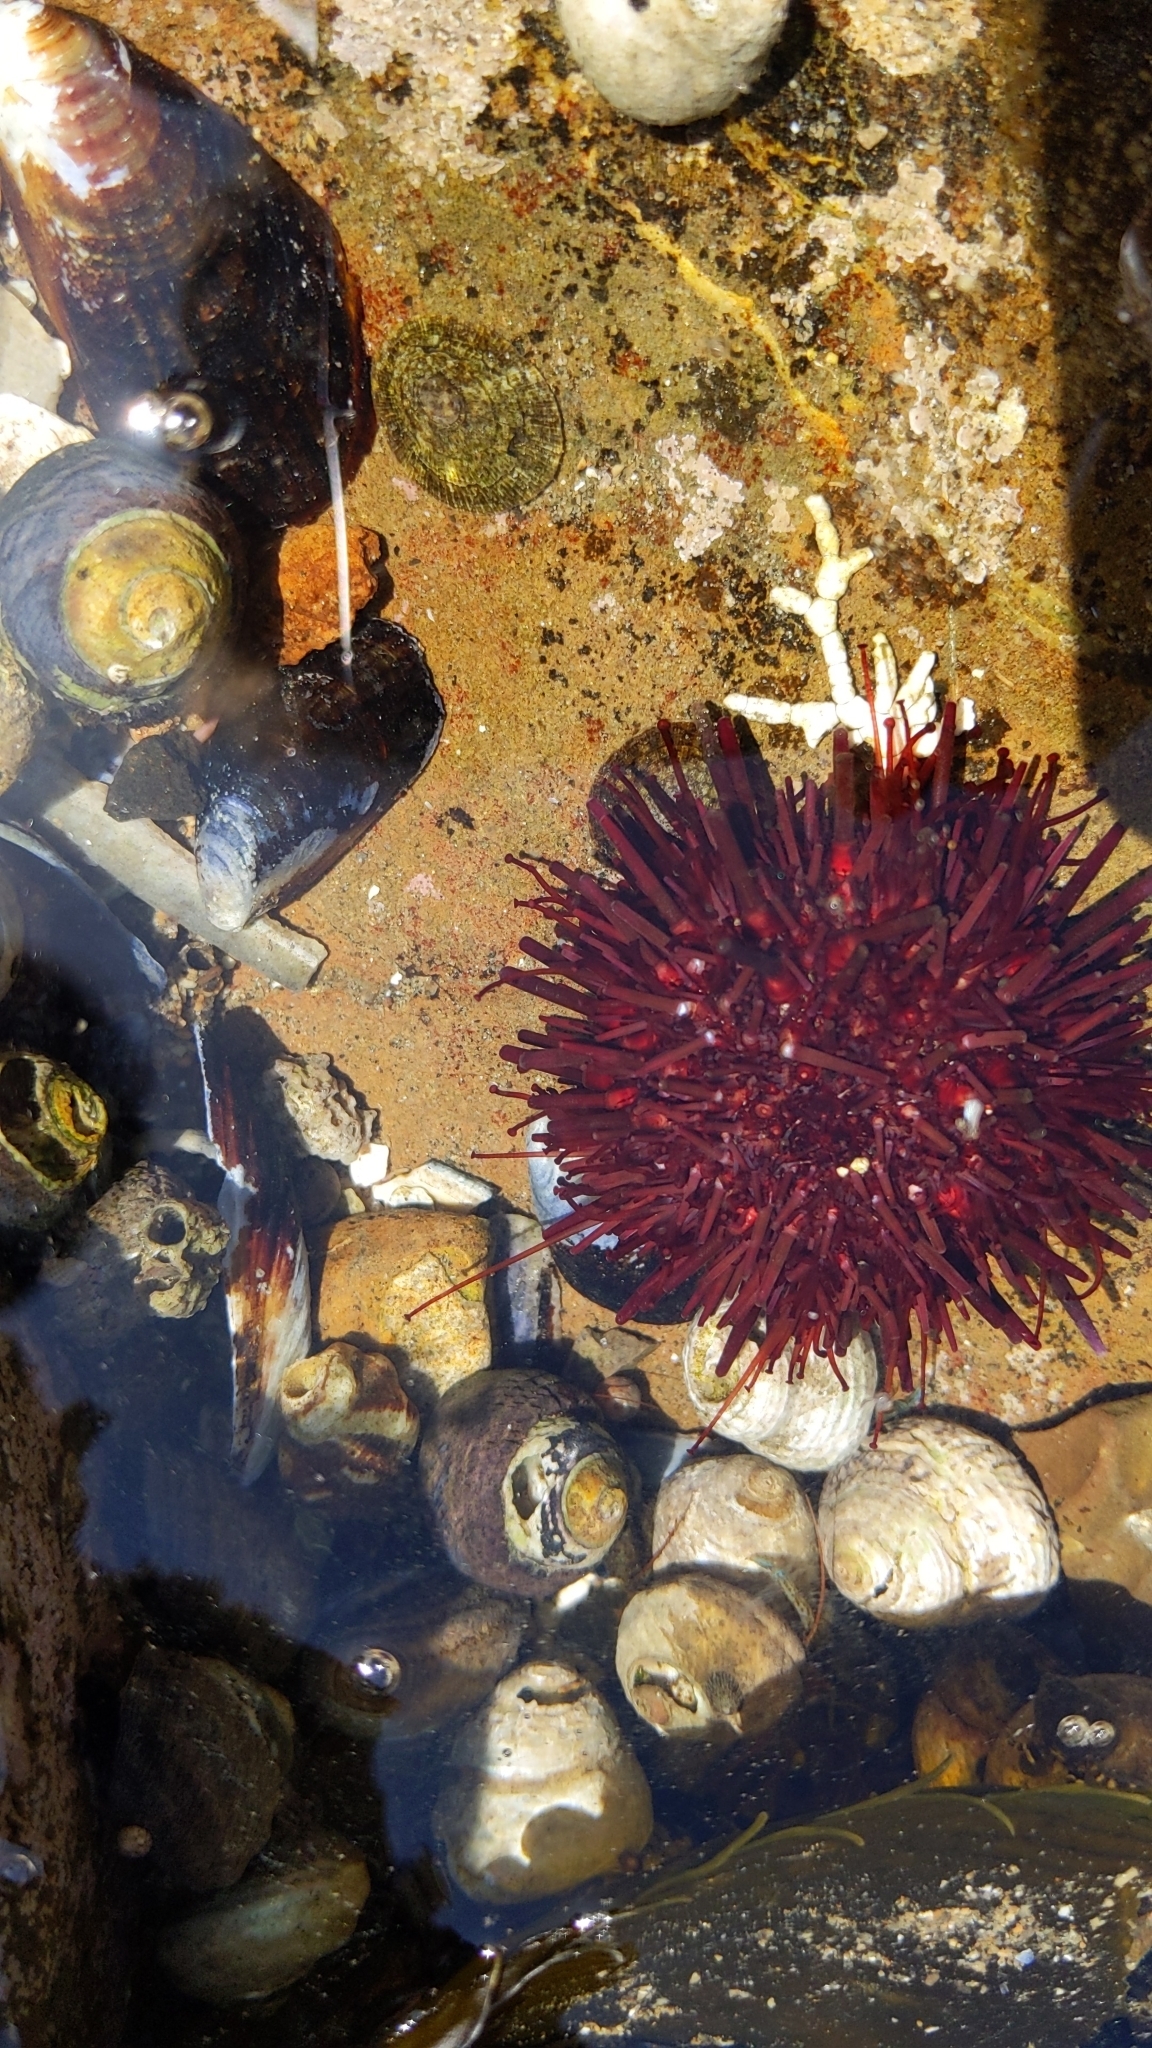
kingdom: Animalia
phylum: Echinodermata
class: Echinoidea
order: Camarodonta
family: Strongylocentrotidae
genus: Mesocentrotus
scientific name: Mesocentrotus franciscanus
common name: Red sea urchin
